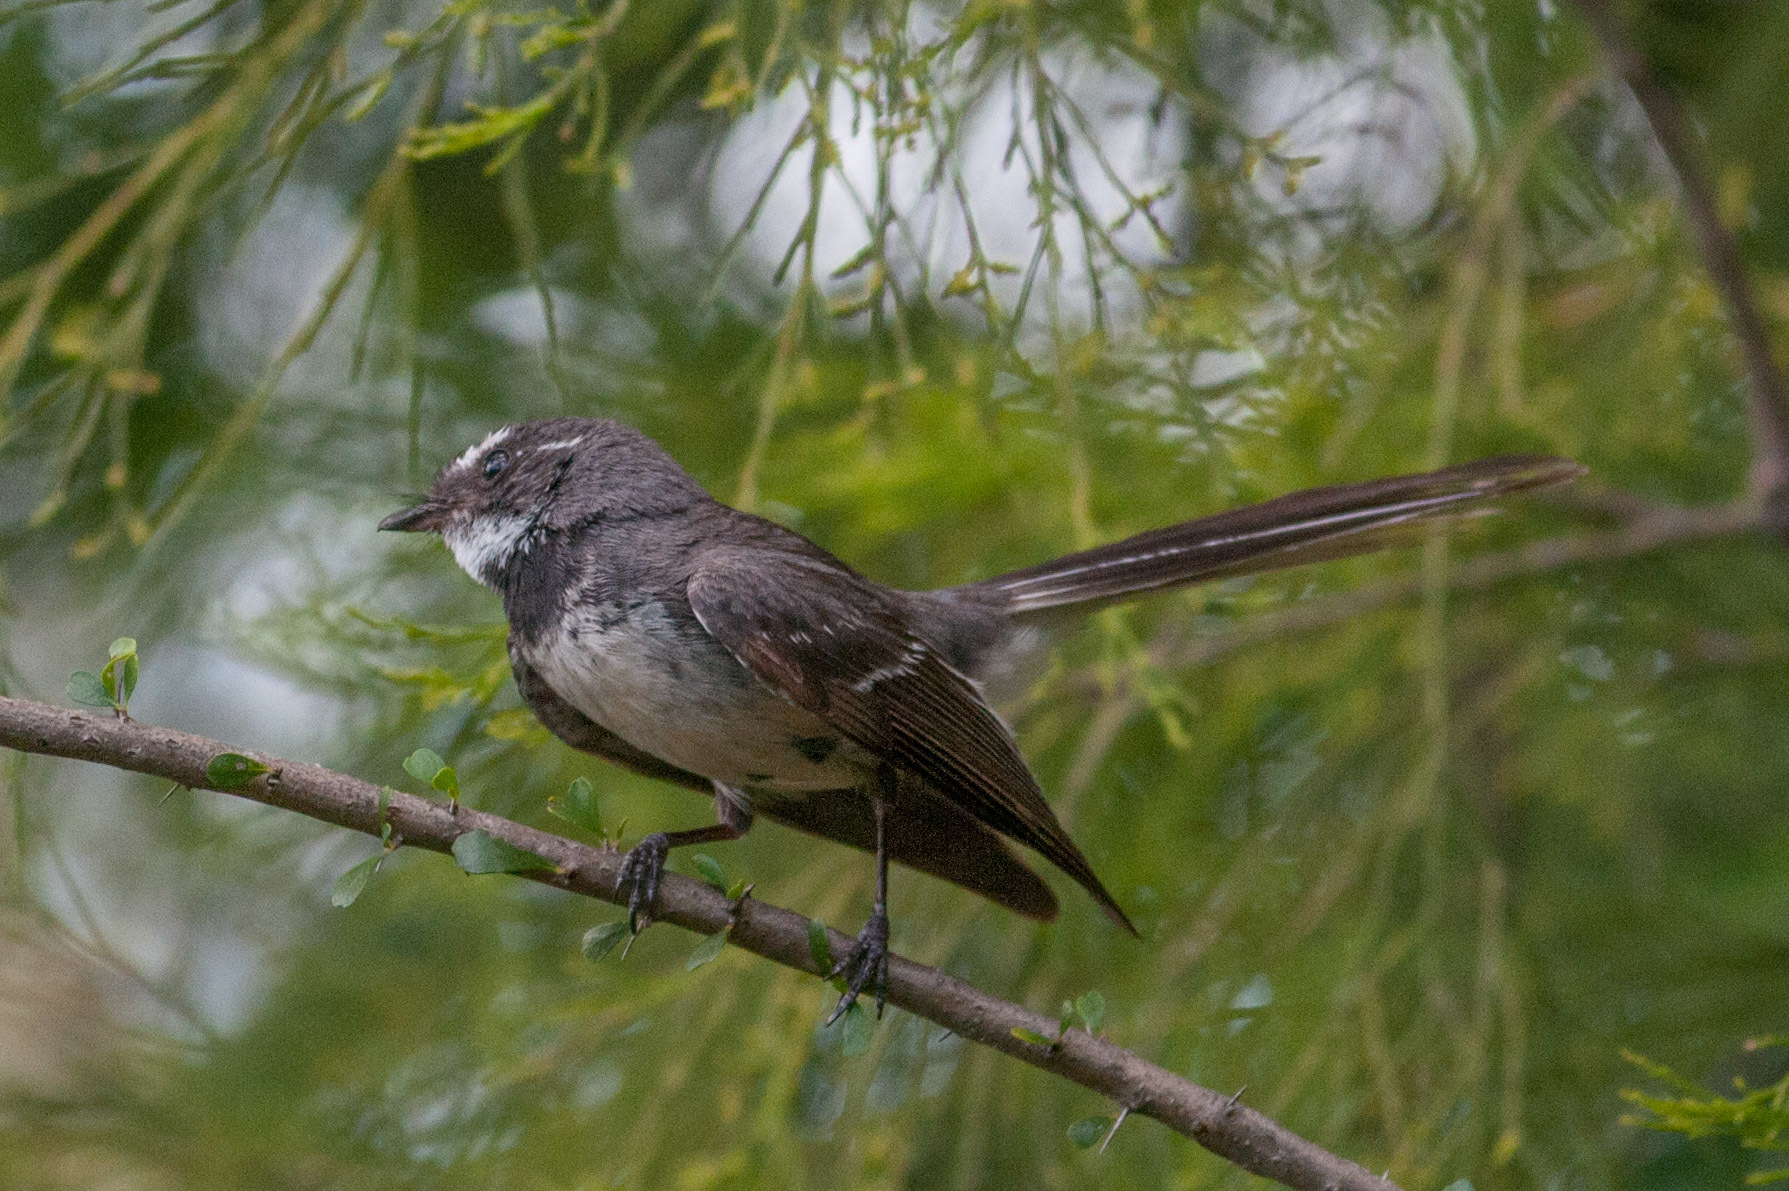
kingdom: Animalia
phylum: Chordata
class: Aves
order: Passeriformes
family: Rhipiduridae
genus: Rhipidura
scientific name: Rhipidura albiscapa
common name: Grey fantail
